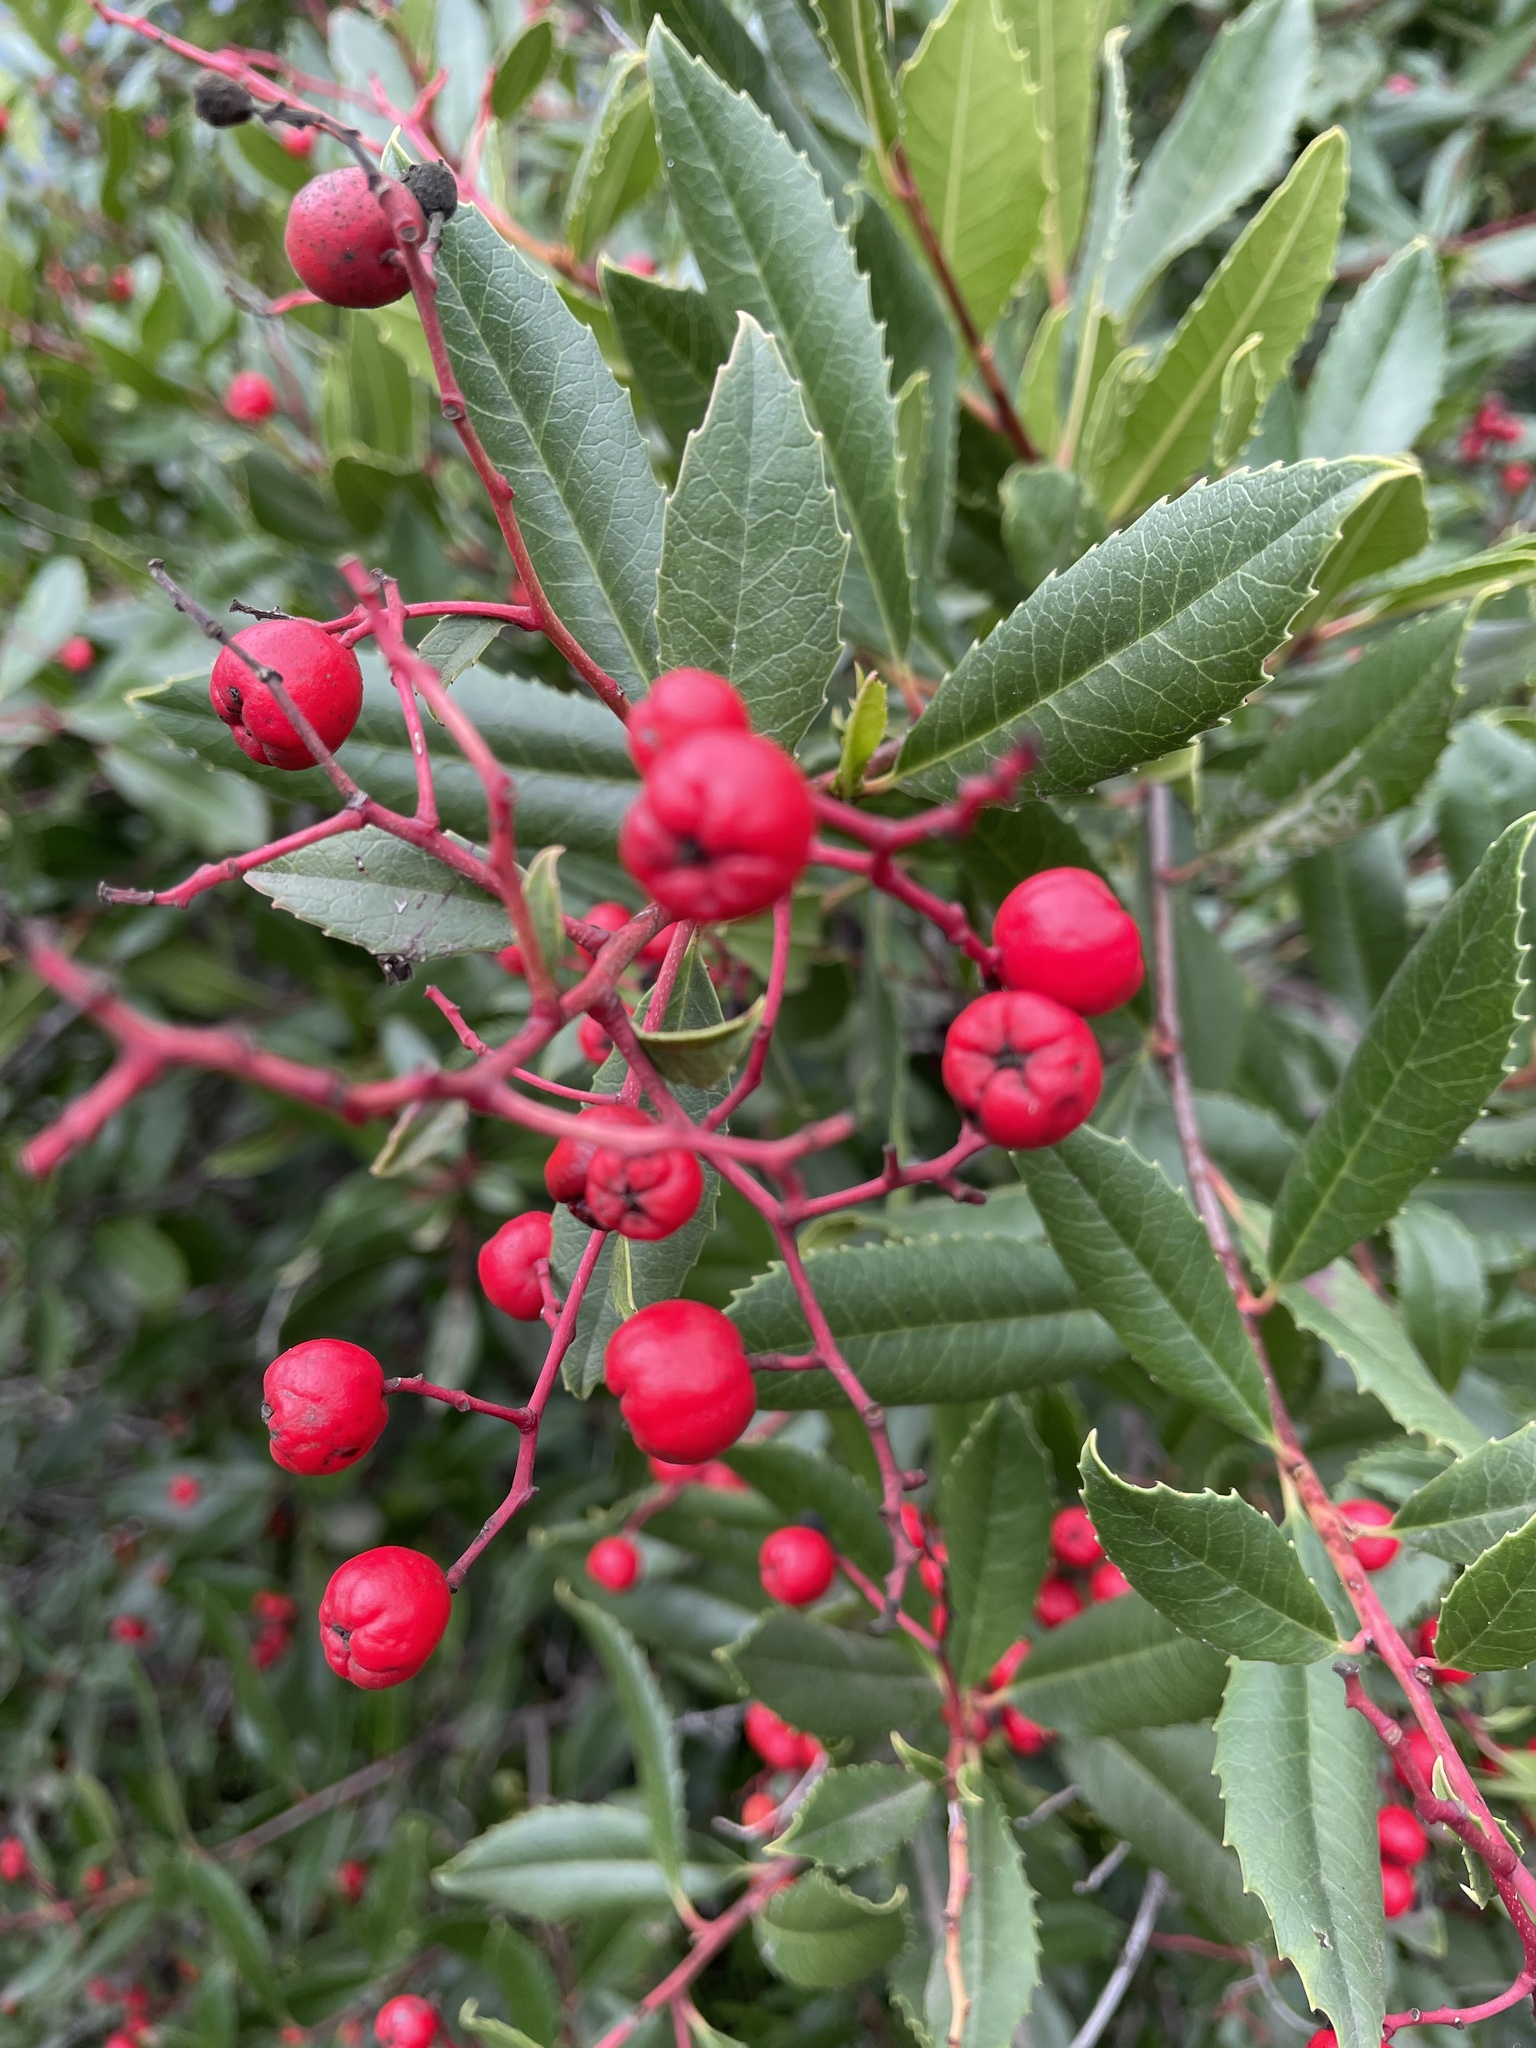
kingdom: Plantae
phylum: Tracheophyta
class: Magnoliopsida
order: Rosales
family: Rosaceae
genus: Heteromeles
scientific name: Heteromeles arbutifolia
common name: California-holly
